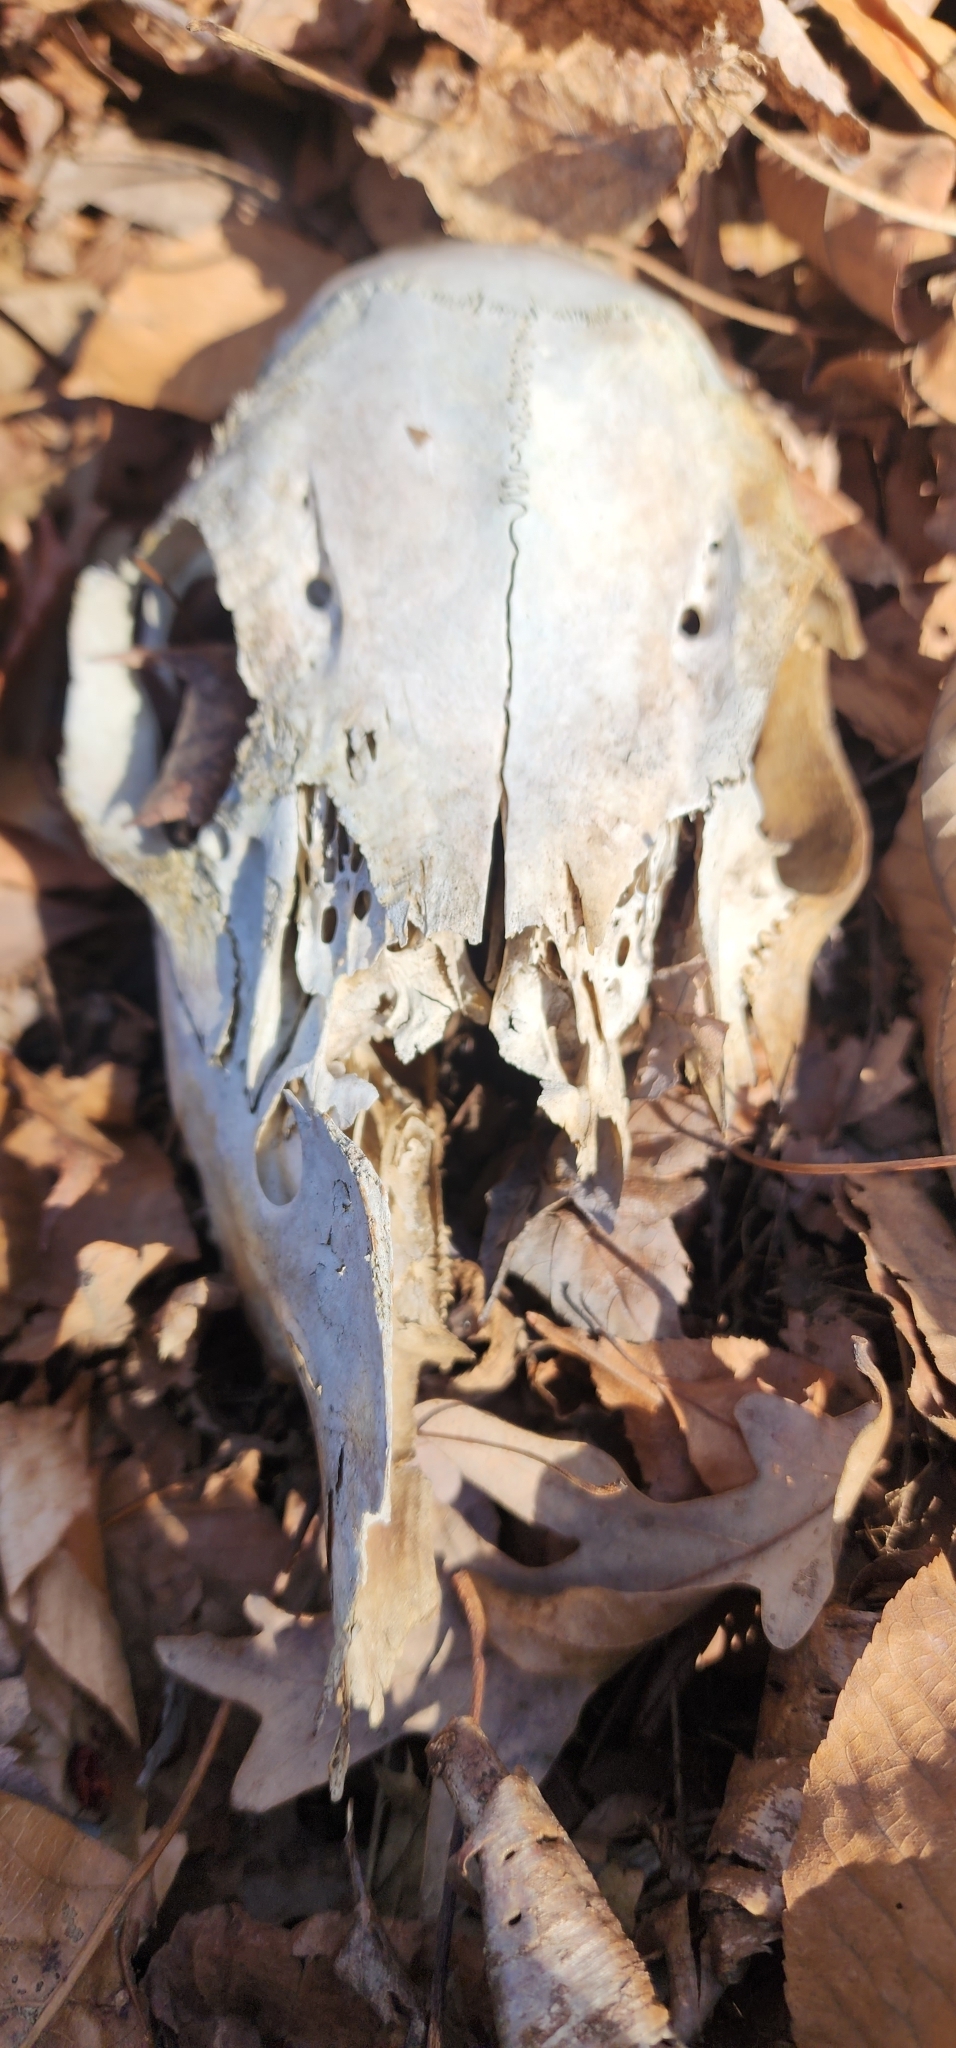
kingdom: Animalia
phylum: Chordata
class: Mammalia
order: Artiodactyla
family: Cervidae
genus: Odocoileus
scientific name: Odocoileus virginianus
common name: White-tailed deer
